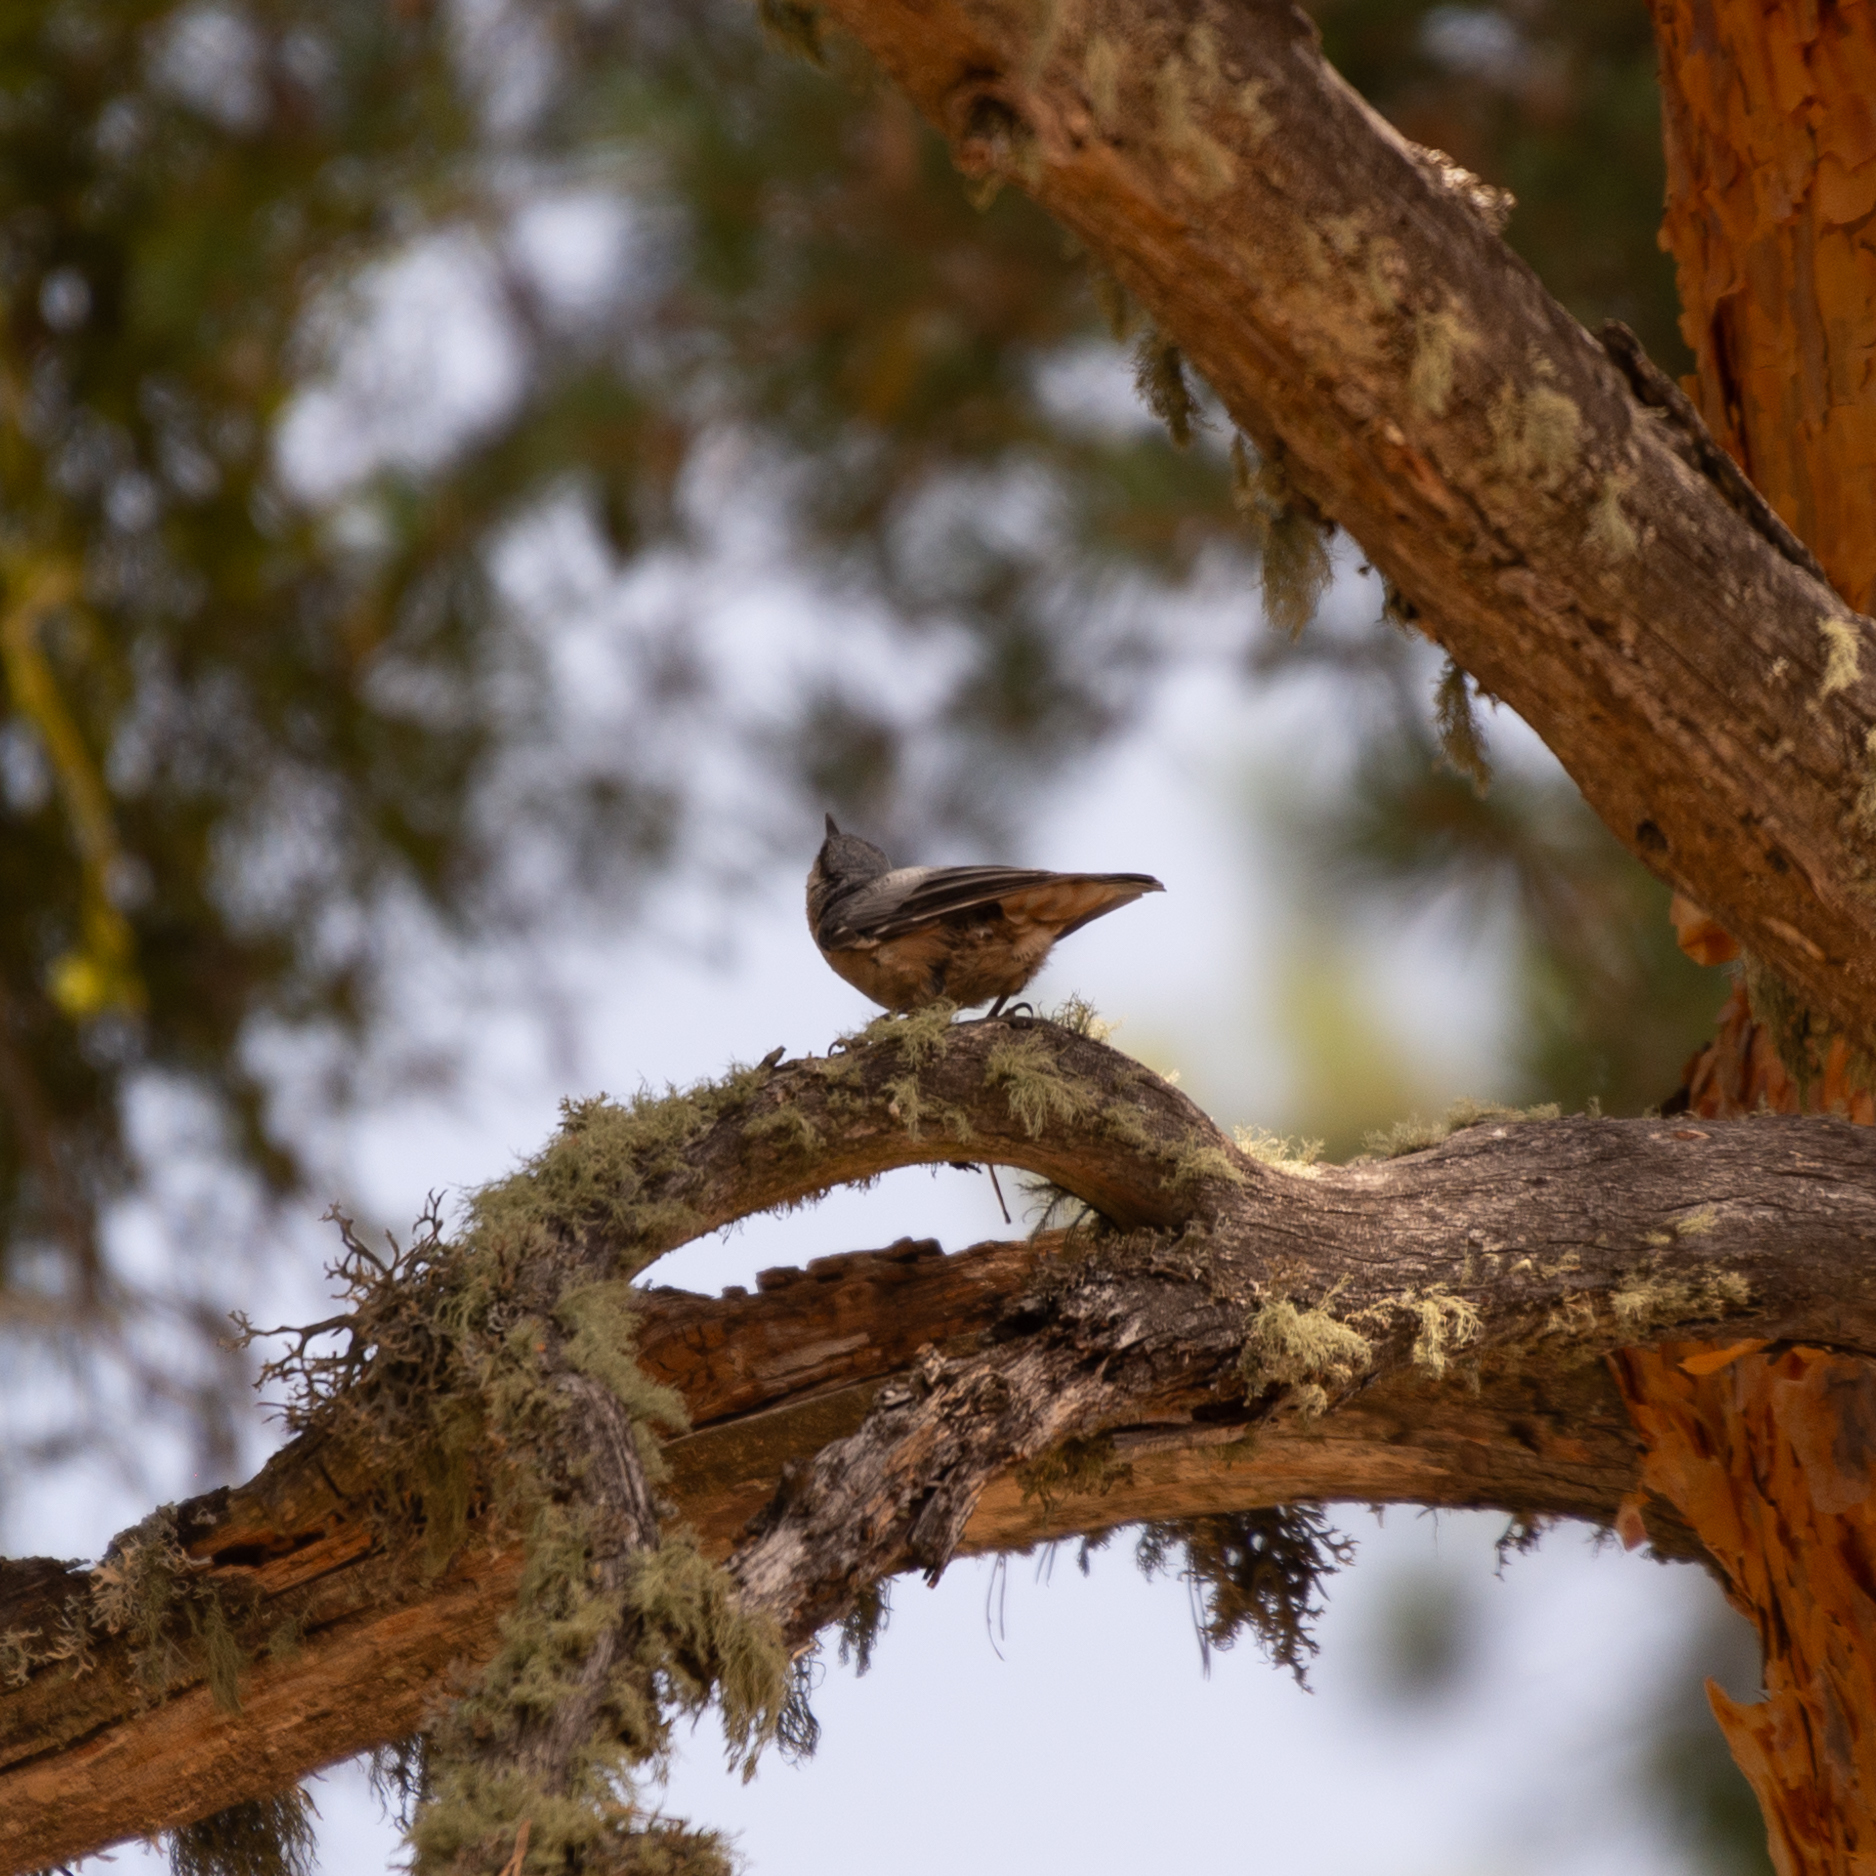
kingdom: Animalia
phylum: Chordata
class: Aves
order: Passeriformes
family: Sittidae
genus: Sitta
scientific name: Sitta europaea
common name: Eurasian nuthatch
